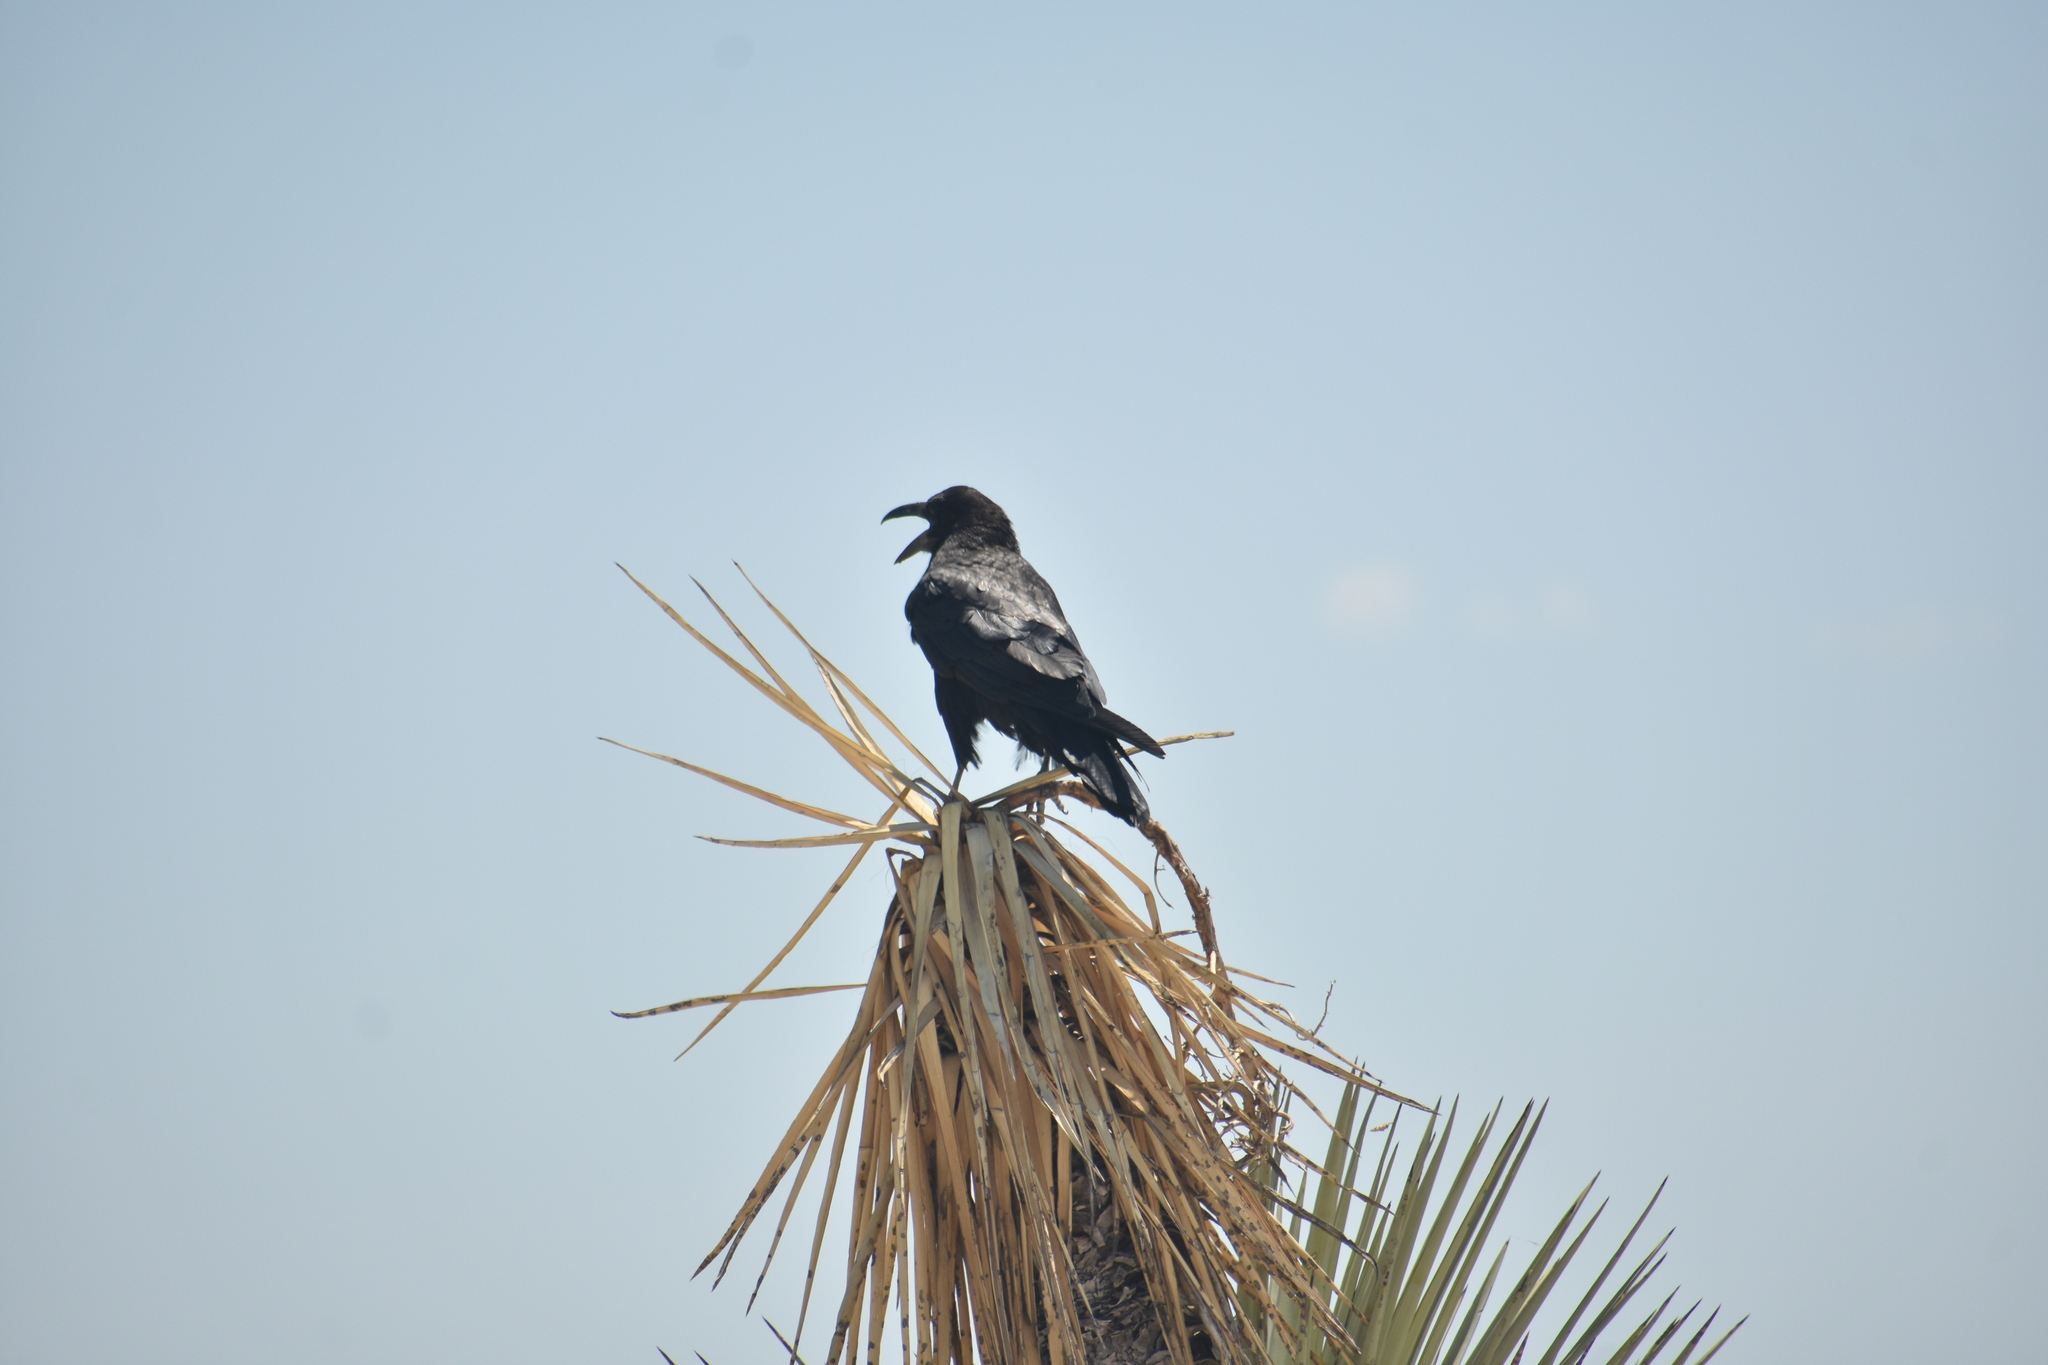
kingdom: Animalia
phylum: Chordata
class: Aves
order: Passeriformes
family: Corvidae
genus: Corvus
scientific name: Corvus cryptoleucus
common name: Chihuahuan raven
